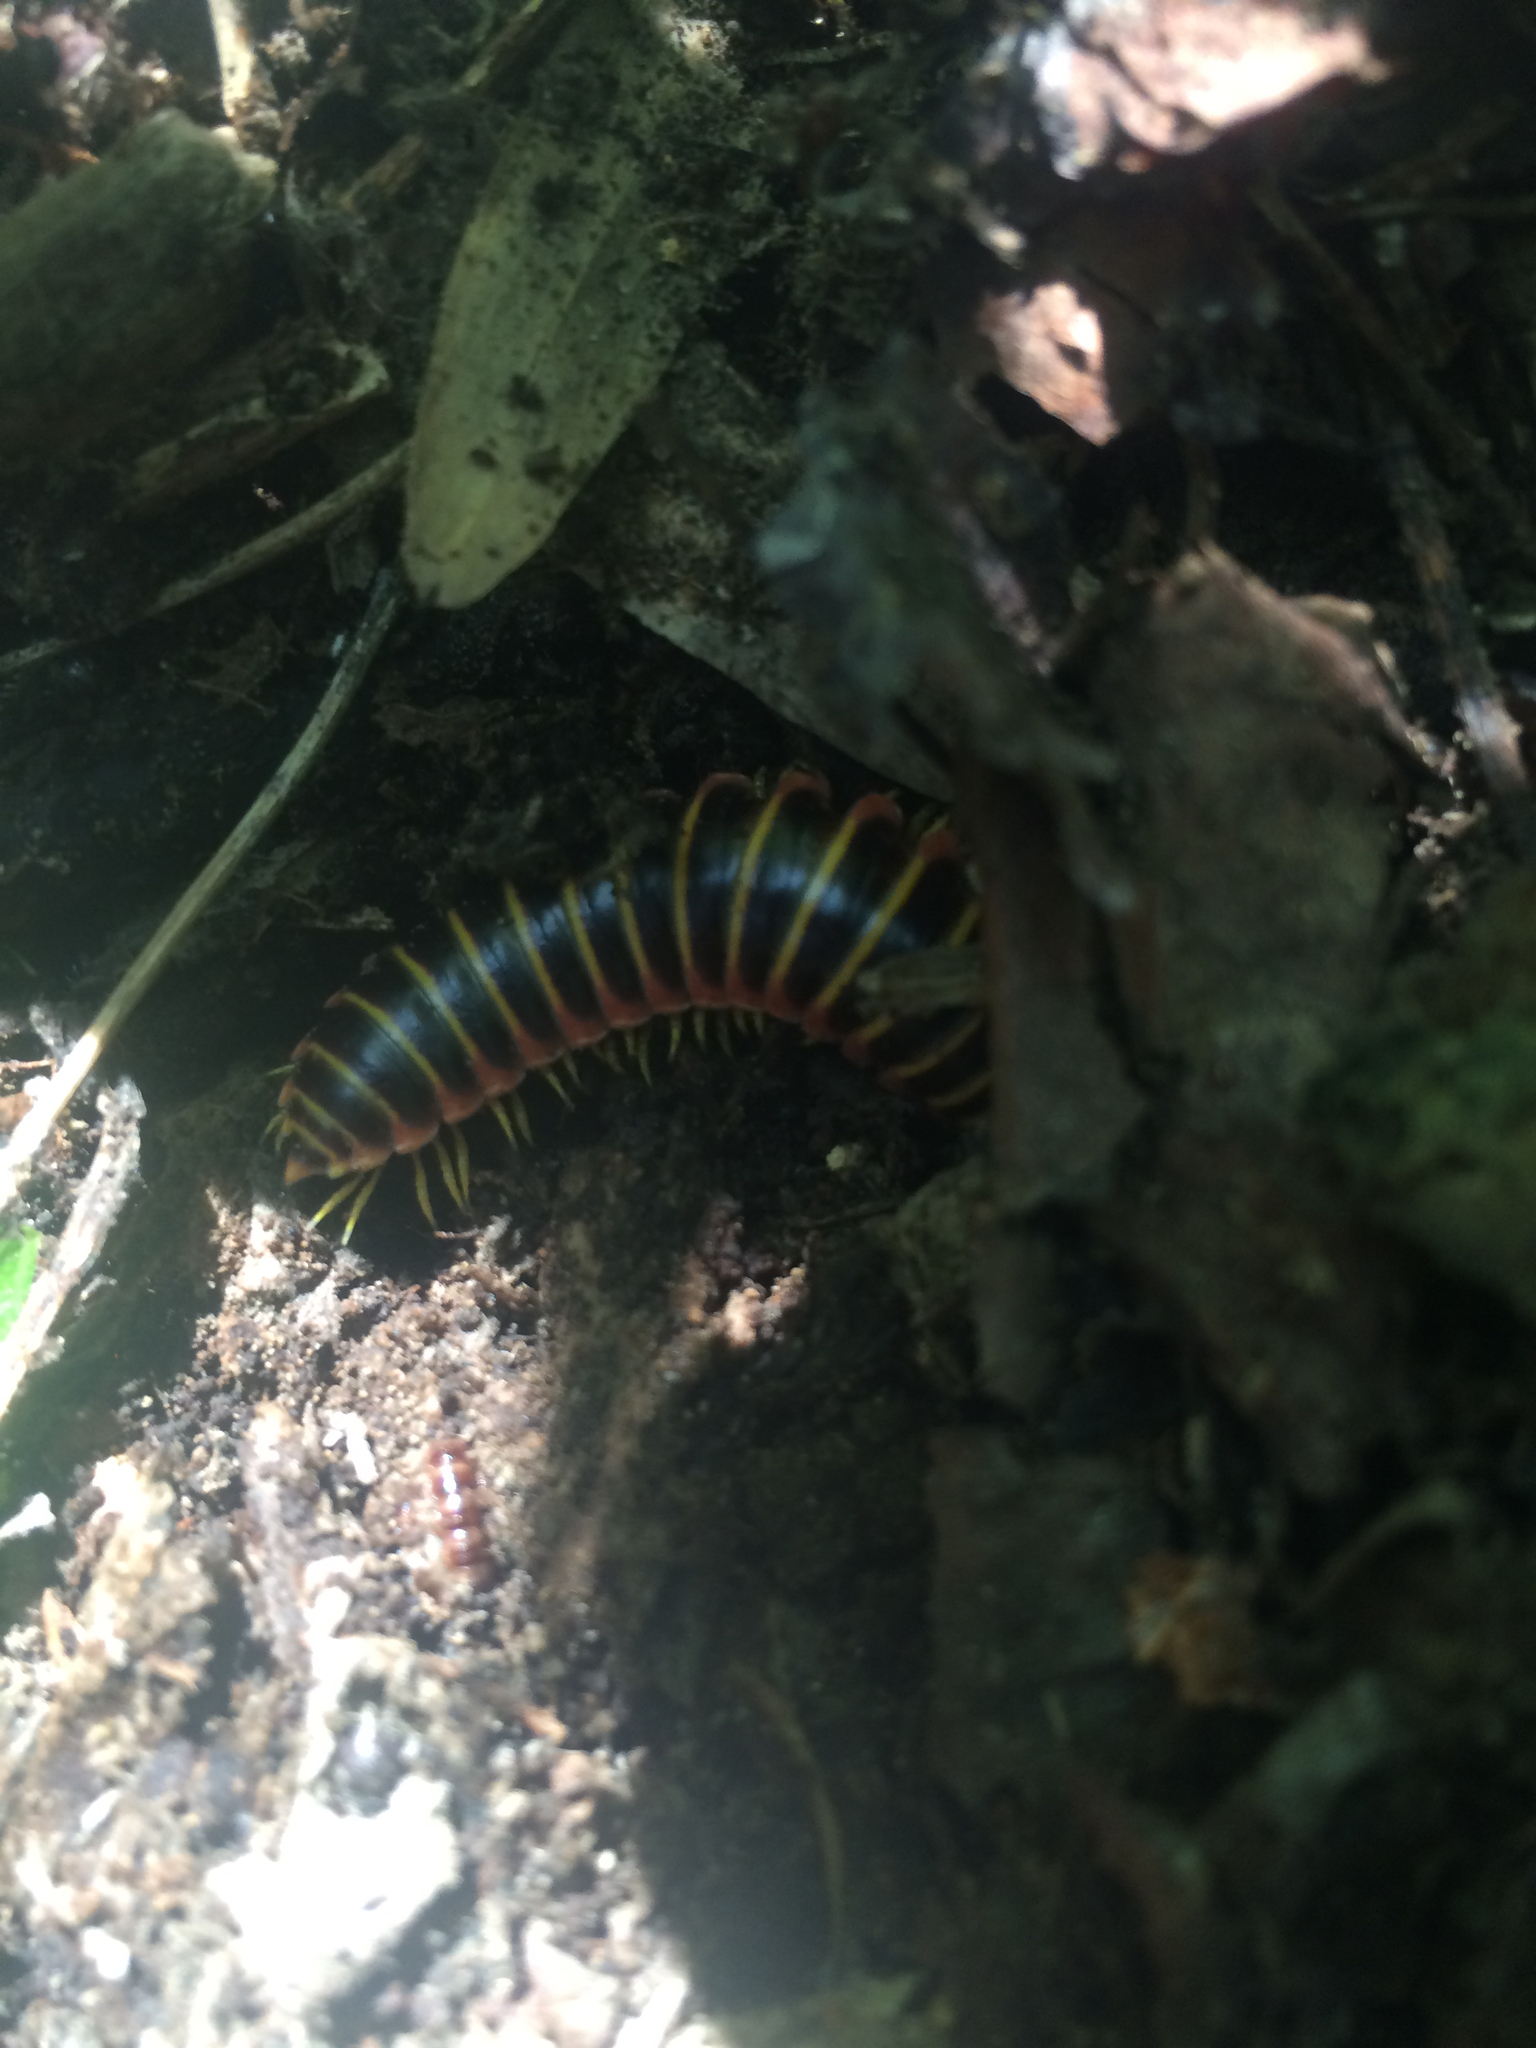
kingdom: Animalia
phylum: Arthropoda
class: Diplopoda
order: Polydesmida
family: Xystodesmidae
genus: Apheloria
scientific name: Apheloria virginiensis
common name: Black-and-gold flat millipede
